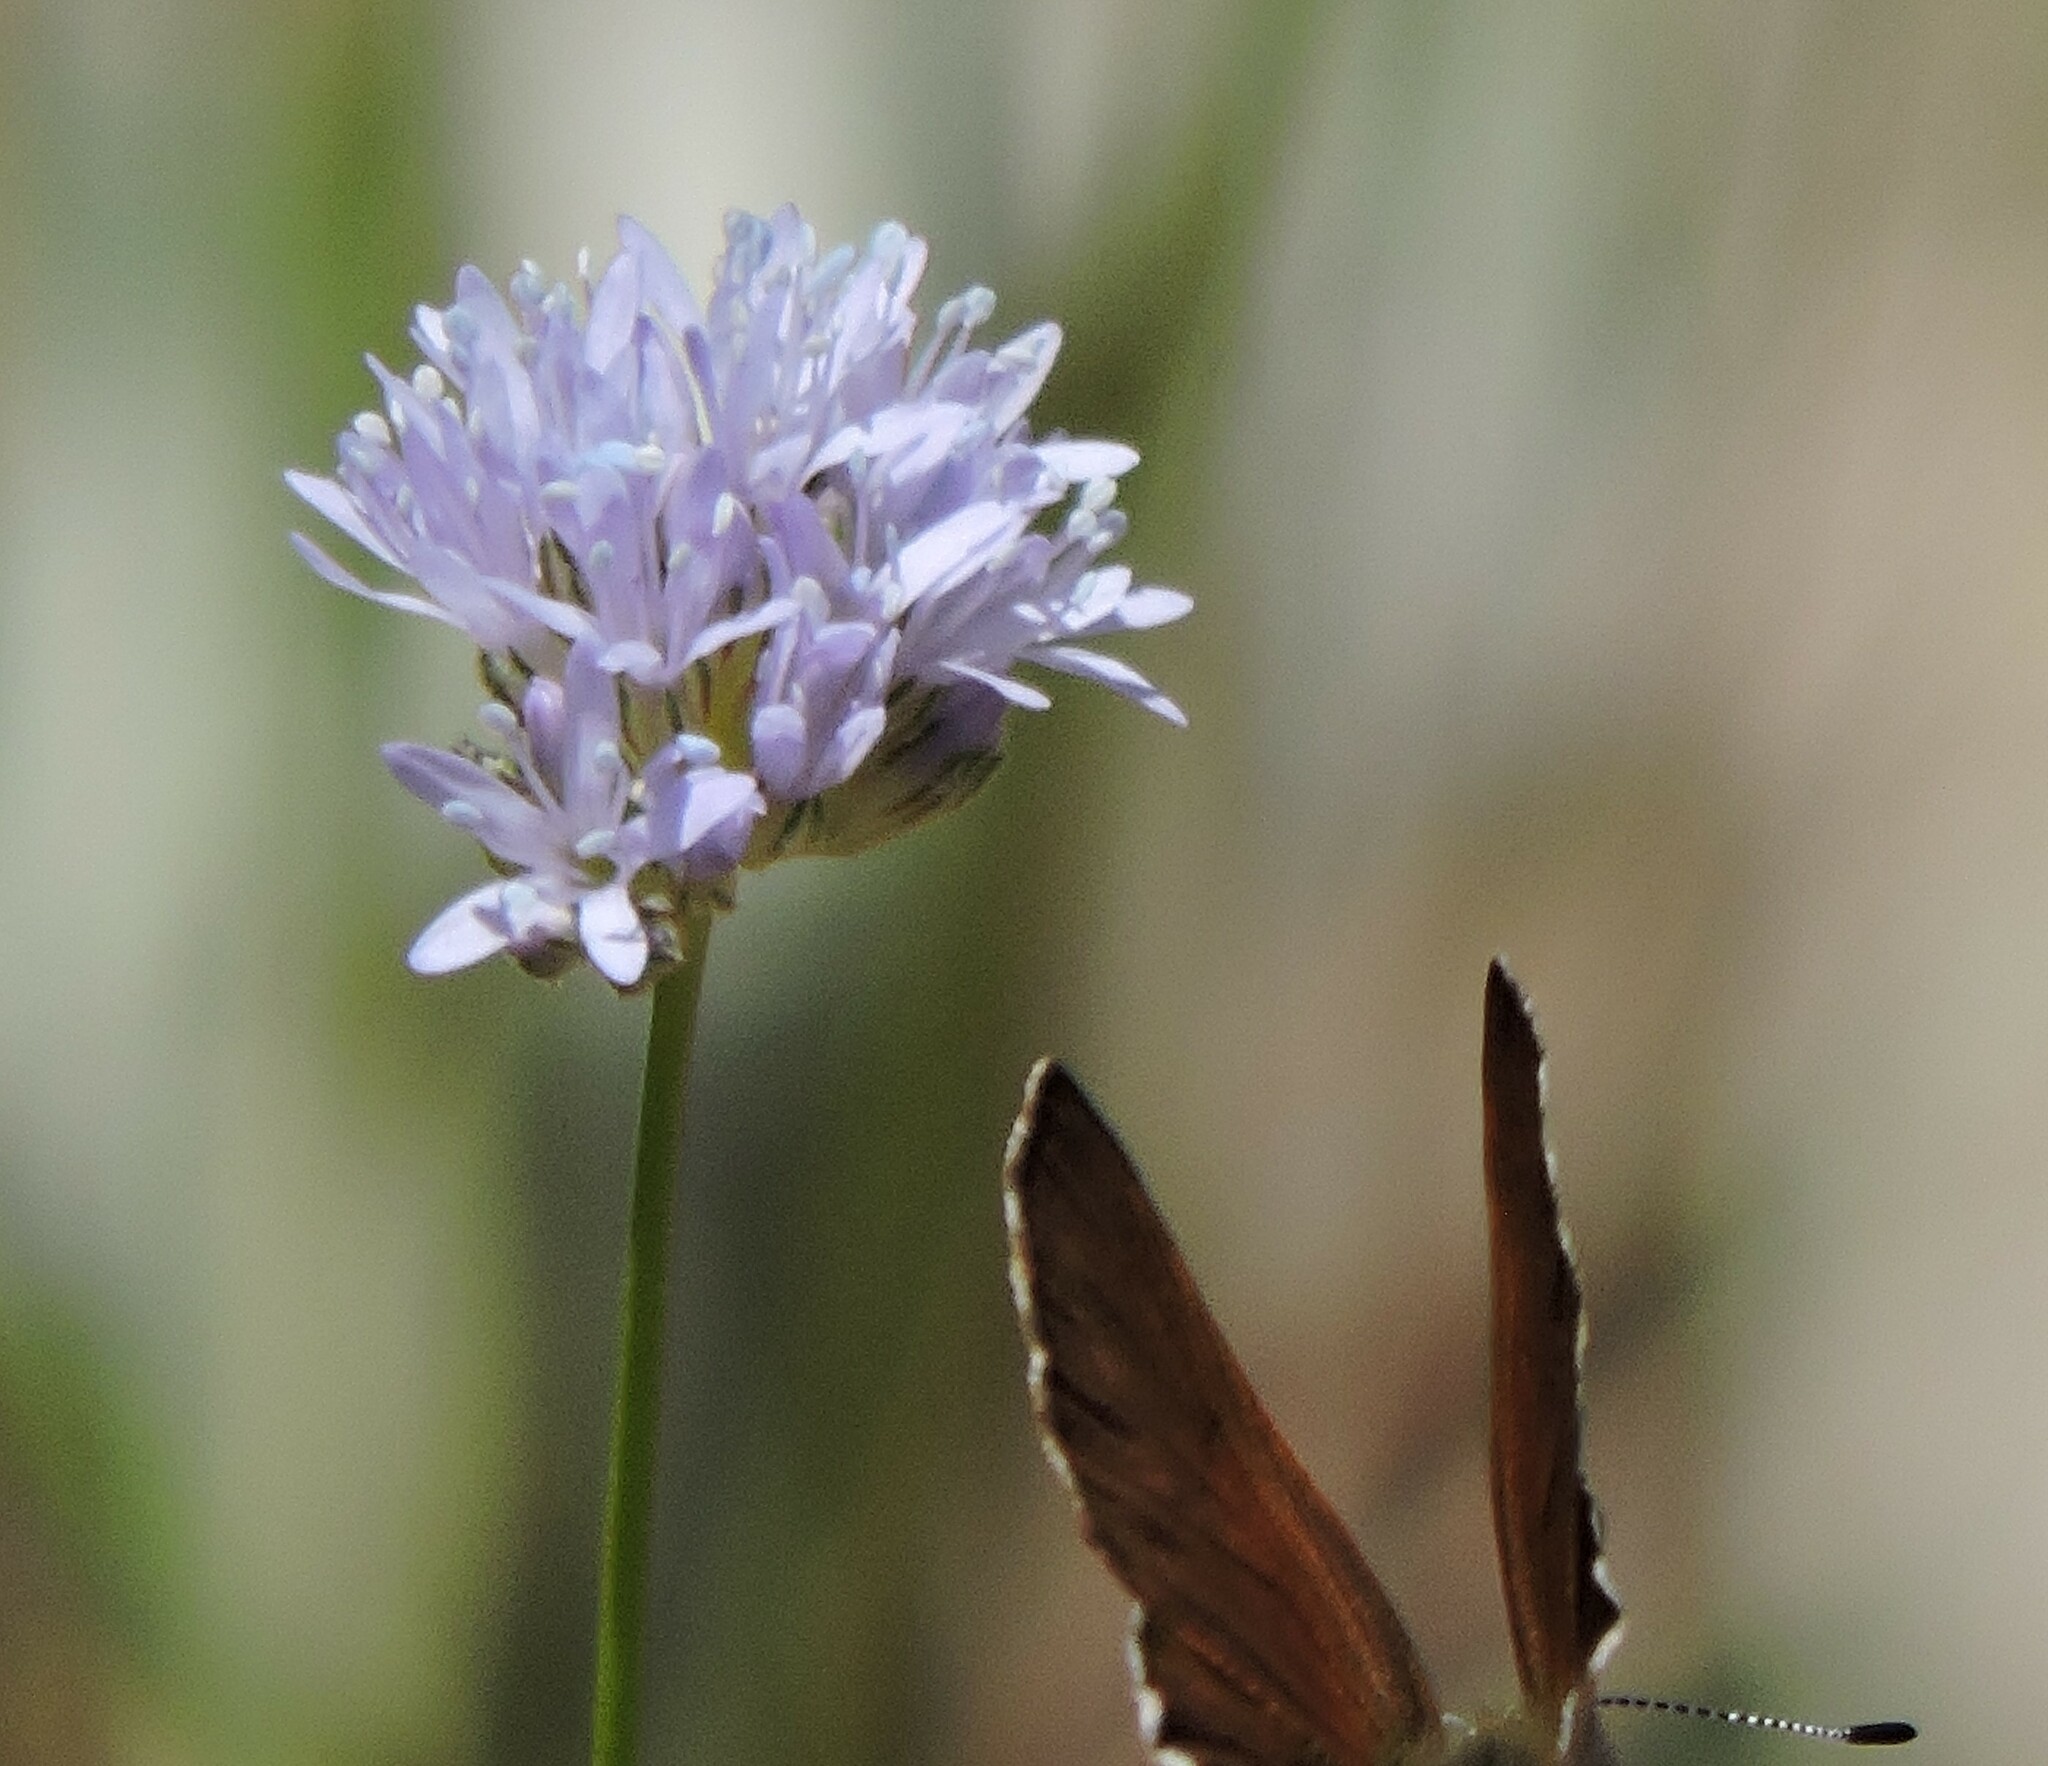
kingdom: Plantae
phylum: Tracheophyta
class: Magnoliopsida
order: Ericales
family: Polemoniaceae
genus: Gilia
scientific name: Gilia capitata
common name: Bluehead gilia
